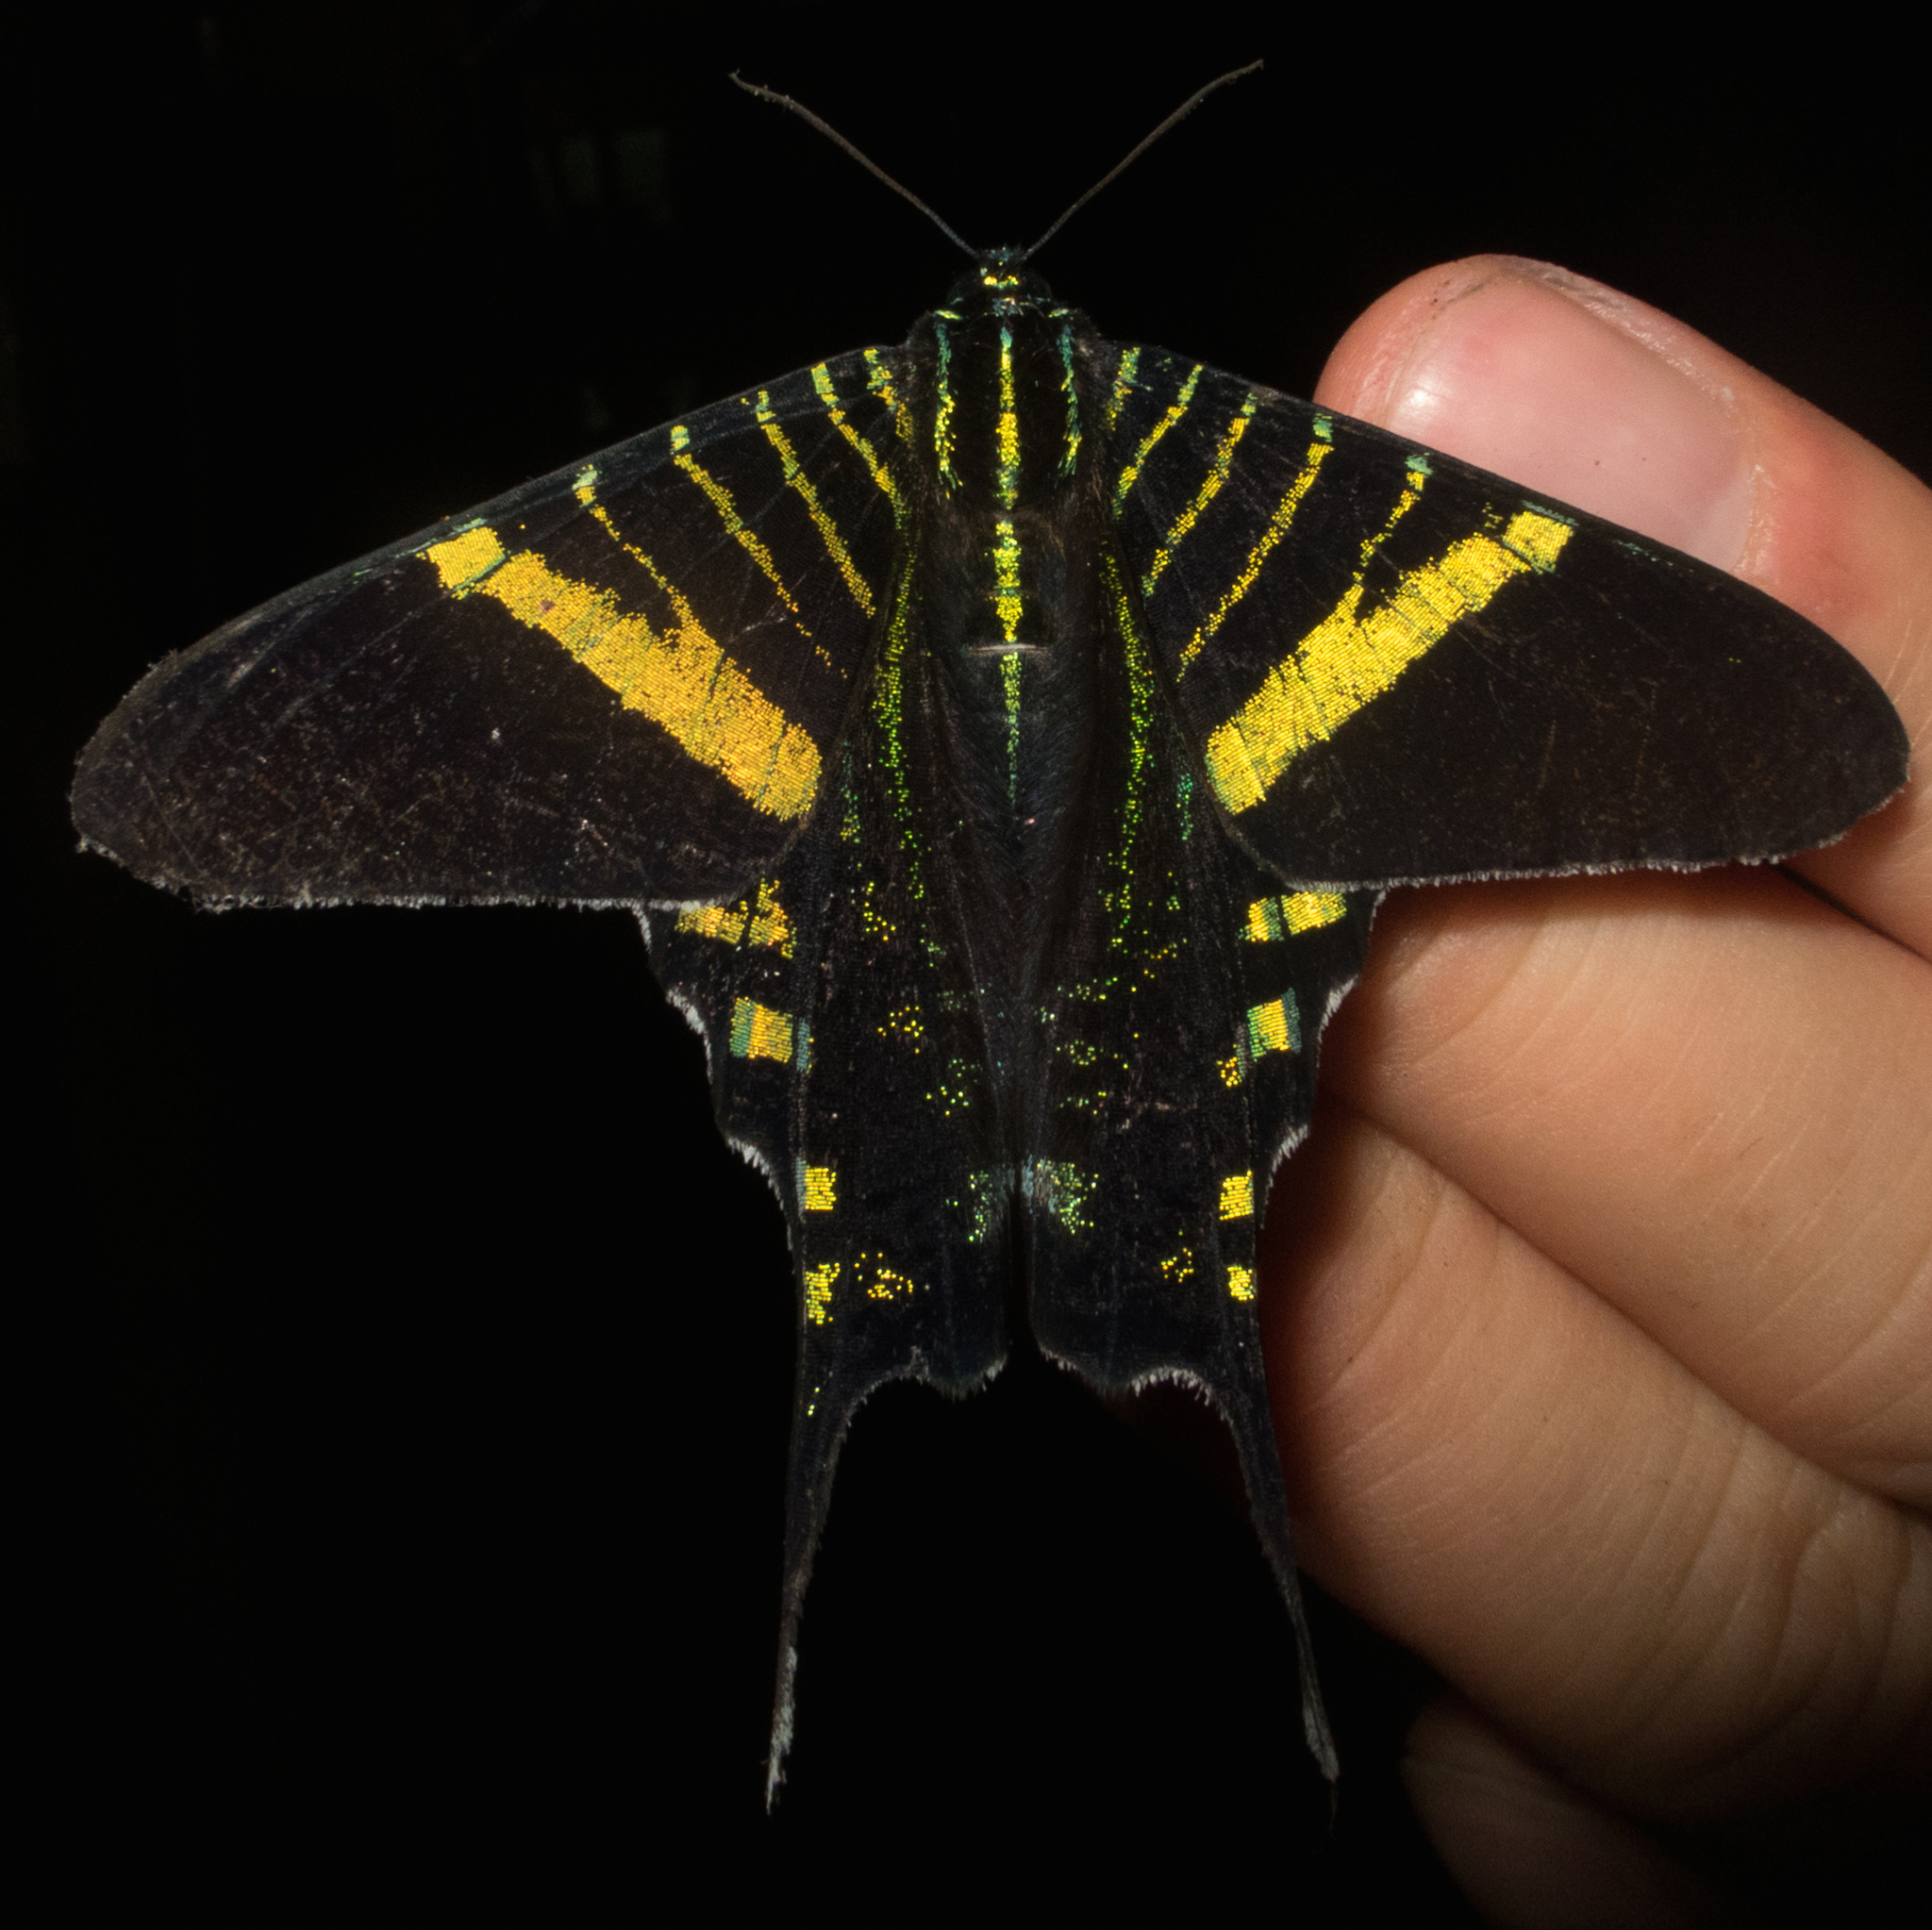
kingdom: Animalia
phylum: Arthropoda
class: Insecta
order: Lepidoptera
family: Uraniidae
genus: Urania
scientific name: Urania fulgens
